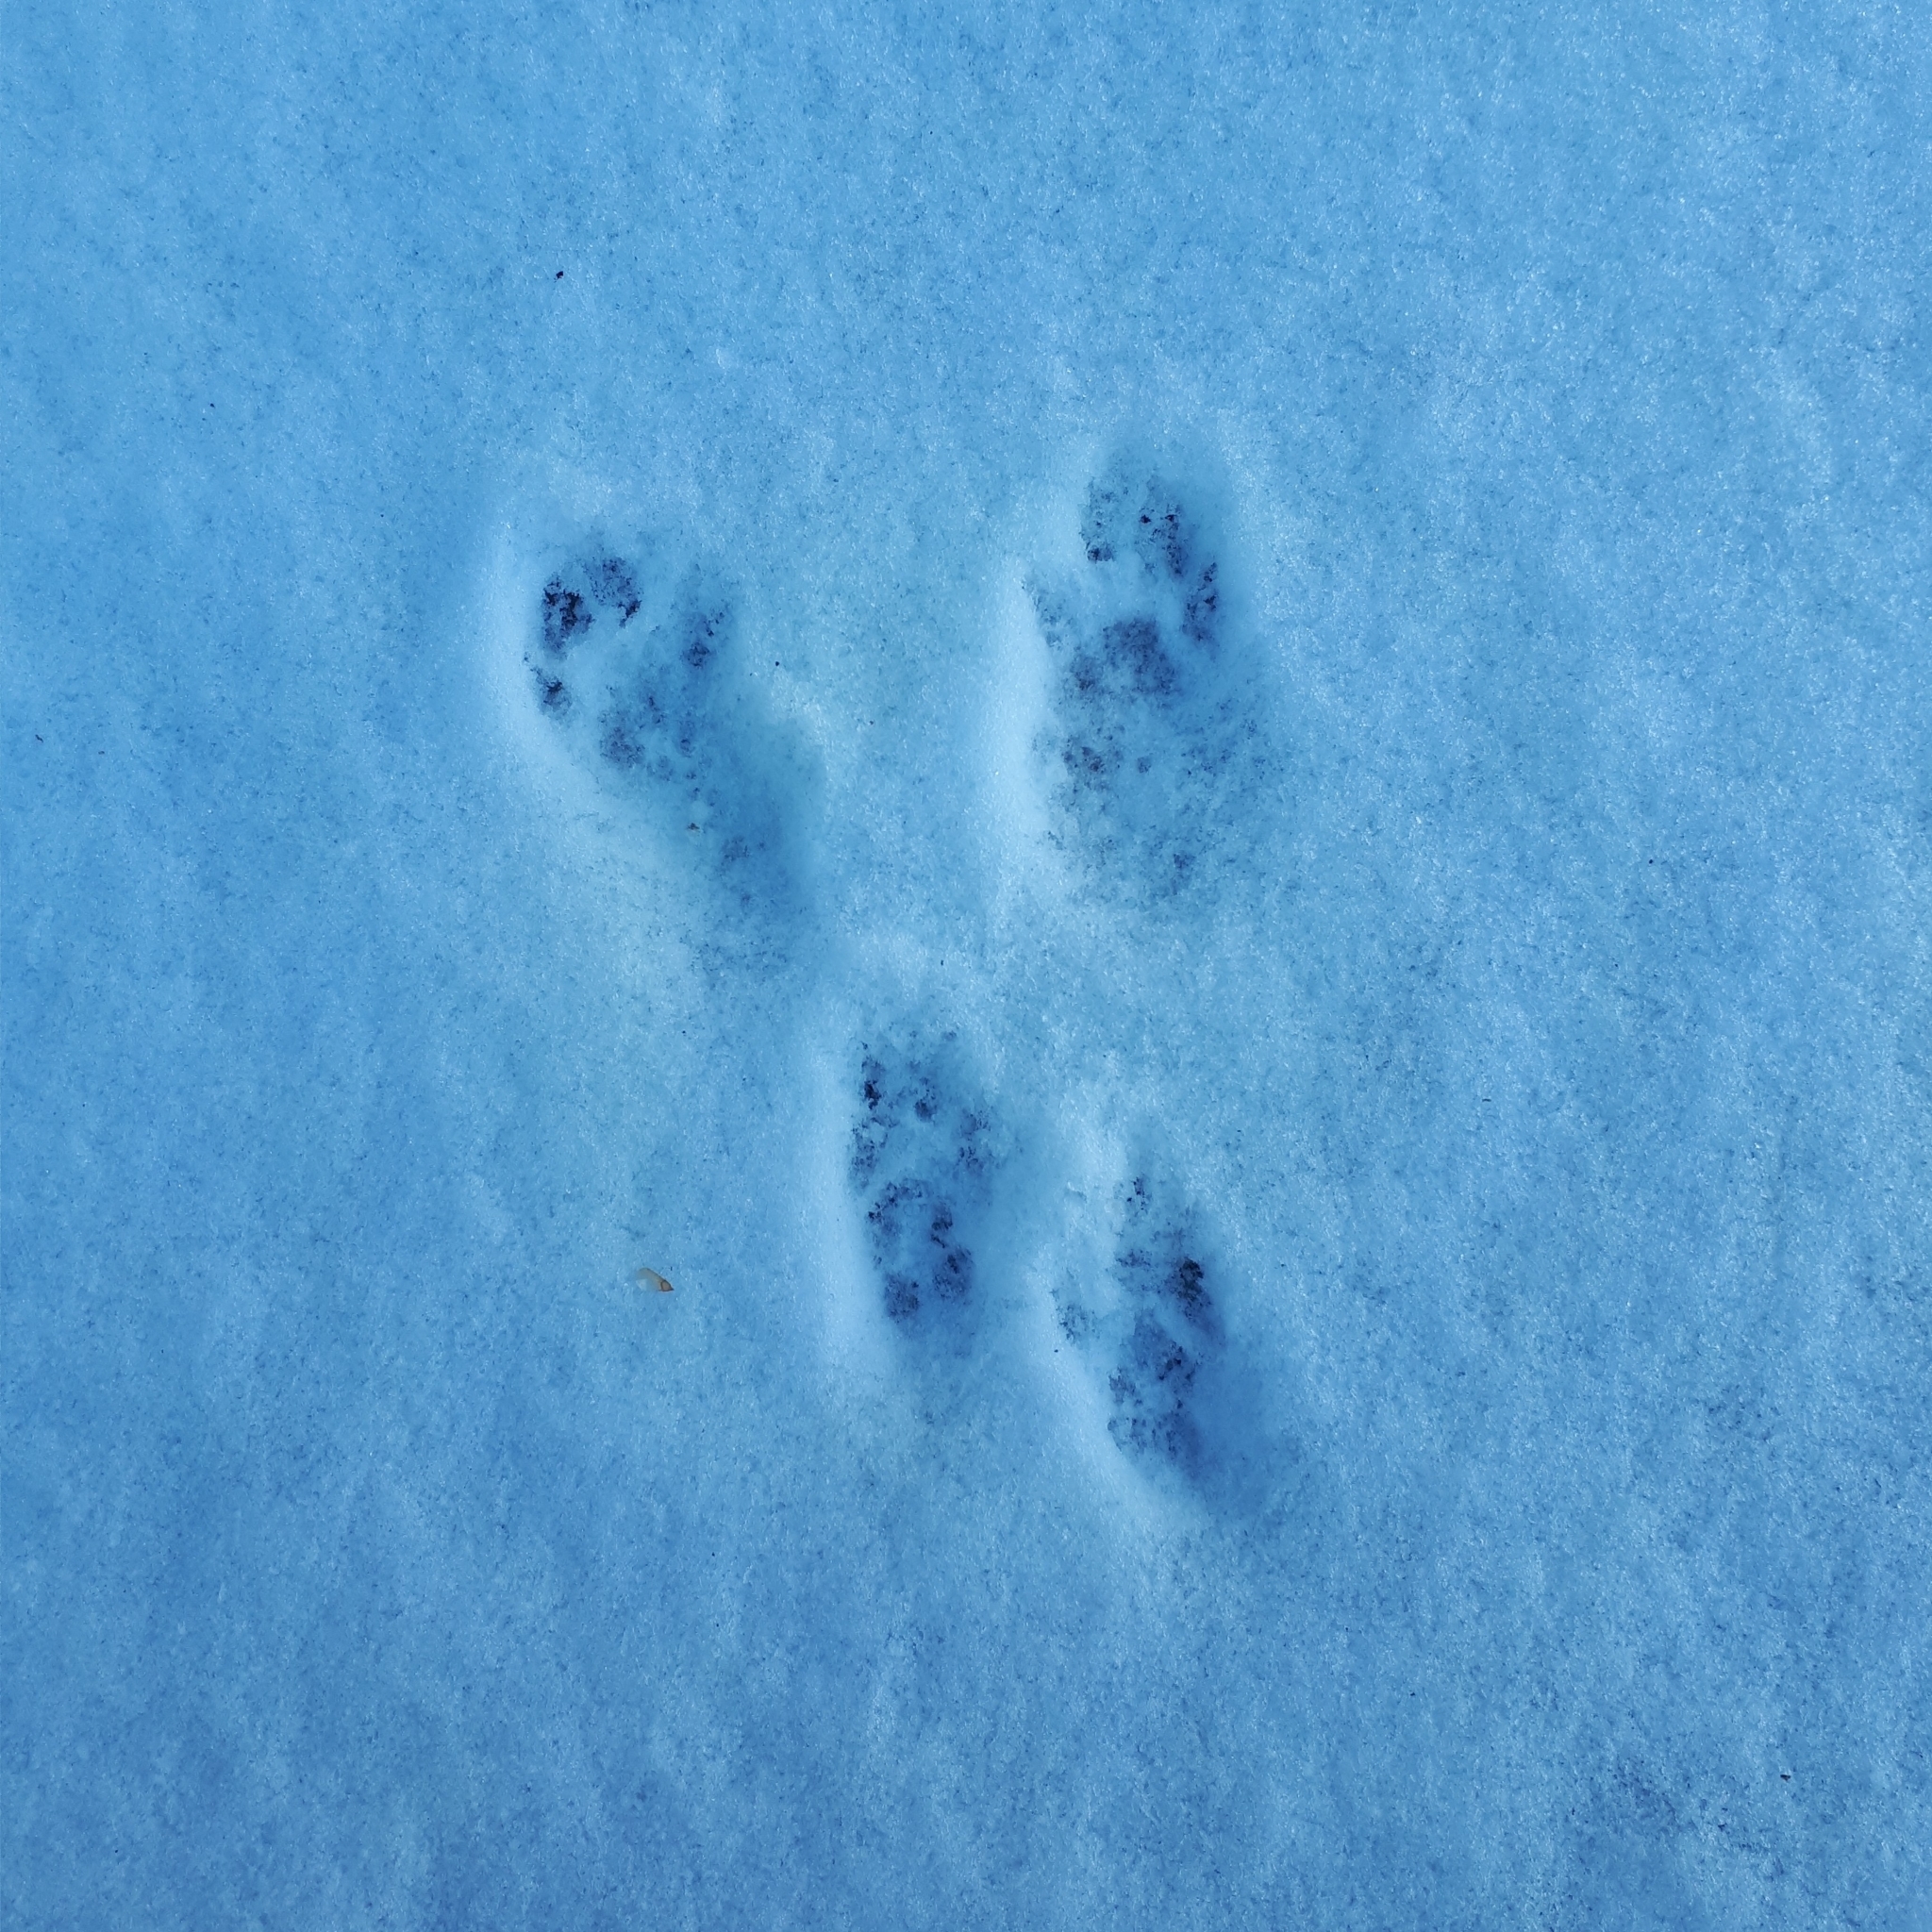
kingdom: Animalia
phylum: Chordata
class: Mammalia
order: Rodentia
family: Sciuridae
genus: Sciurus
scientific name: Sciurus carolinensis
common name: Eastern gray squirrel
